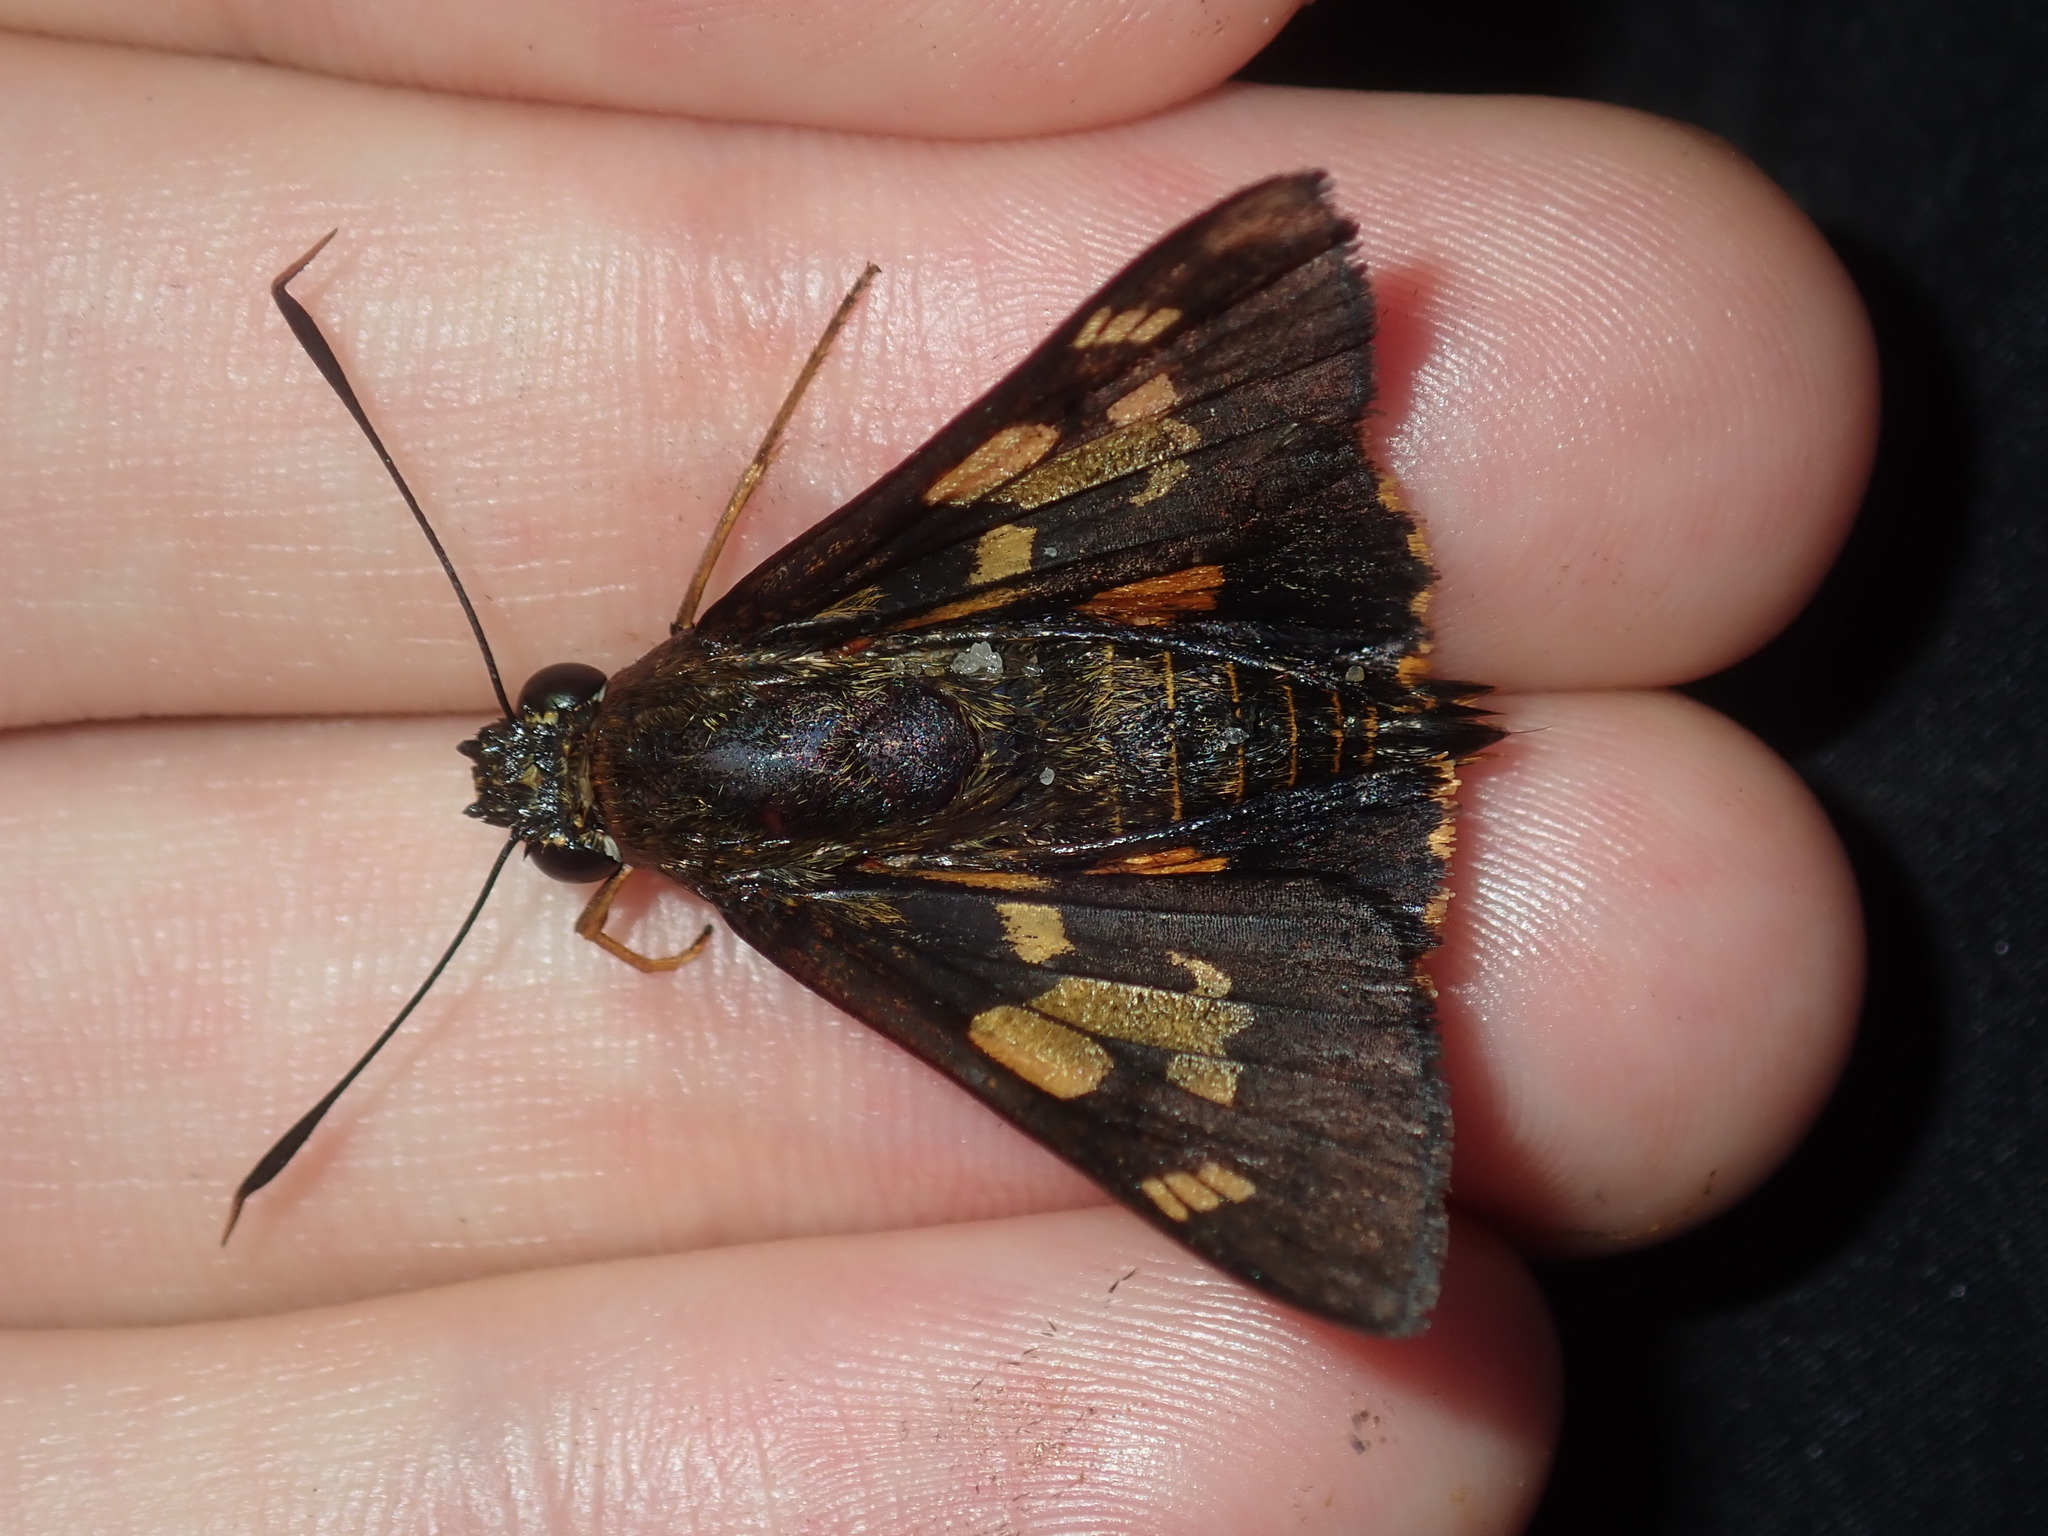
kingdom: Animalia
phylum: Arthropoda
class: Insecta
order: Lepidoptera
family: Hesperiidae
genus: Trapezites
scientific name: Trapezites symmomus
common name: Splendid ochre
